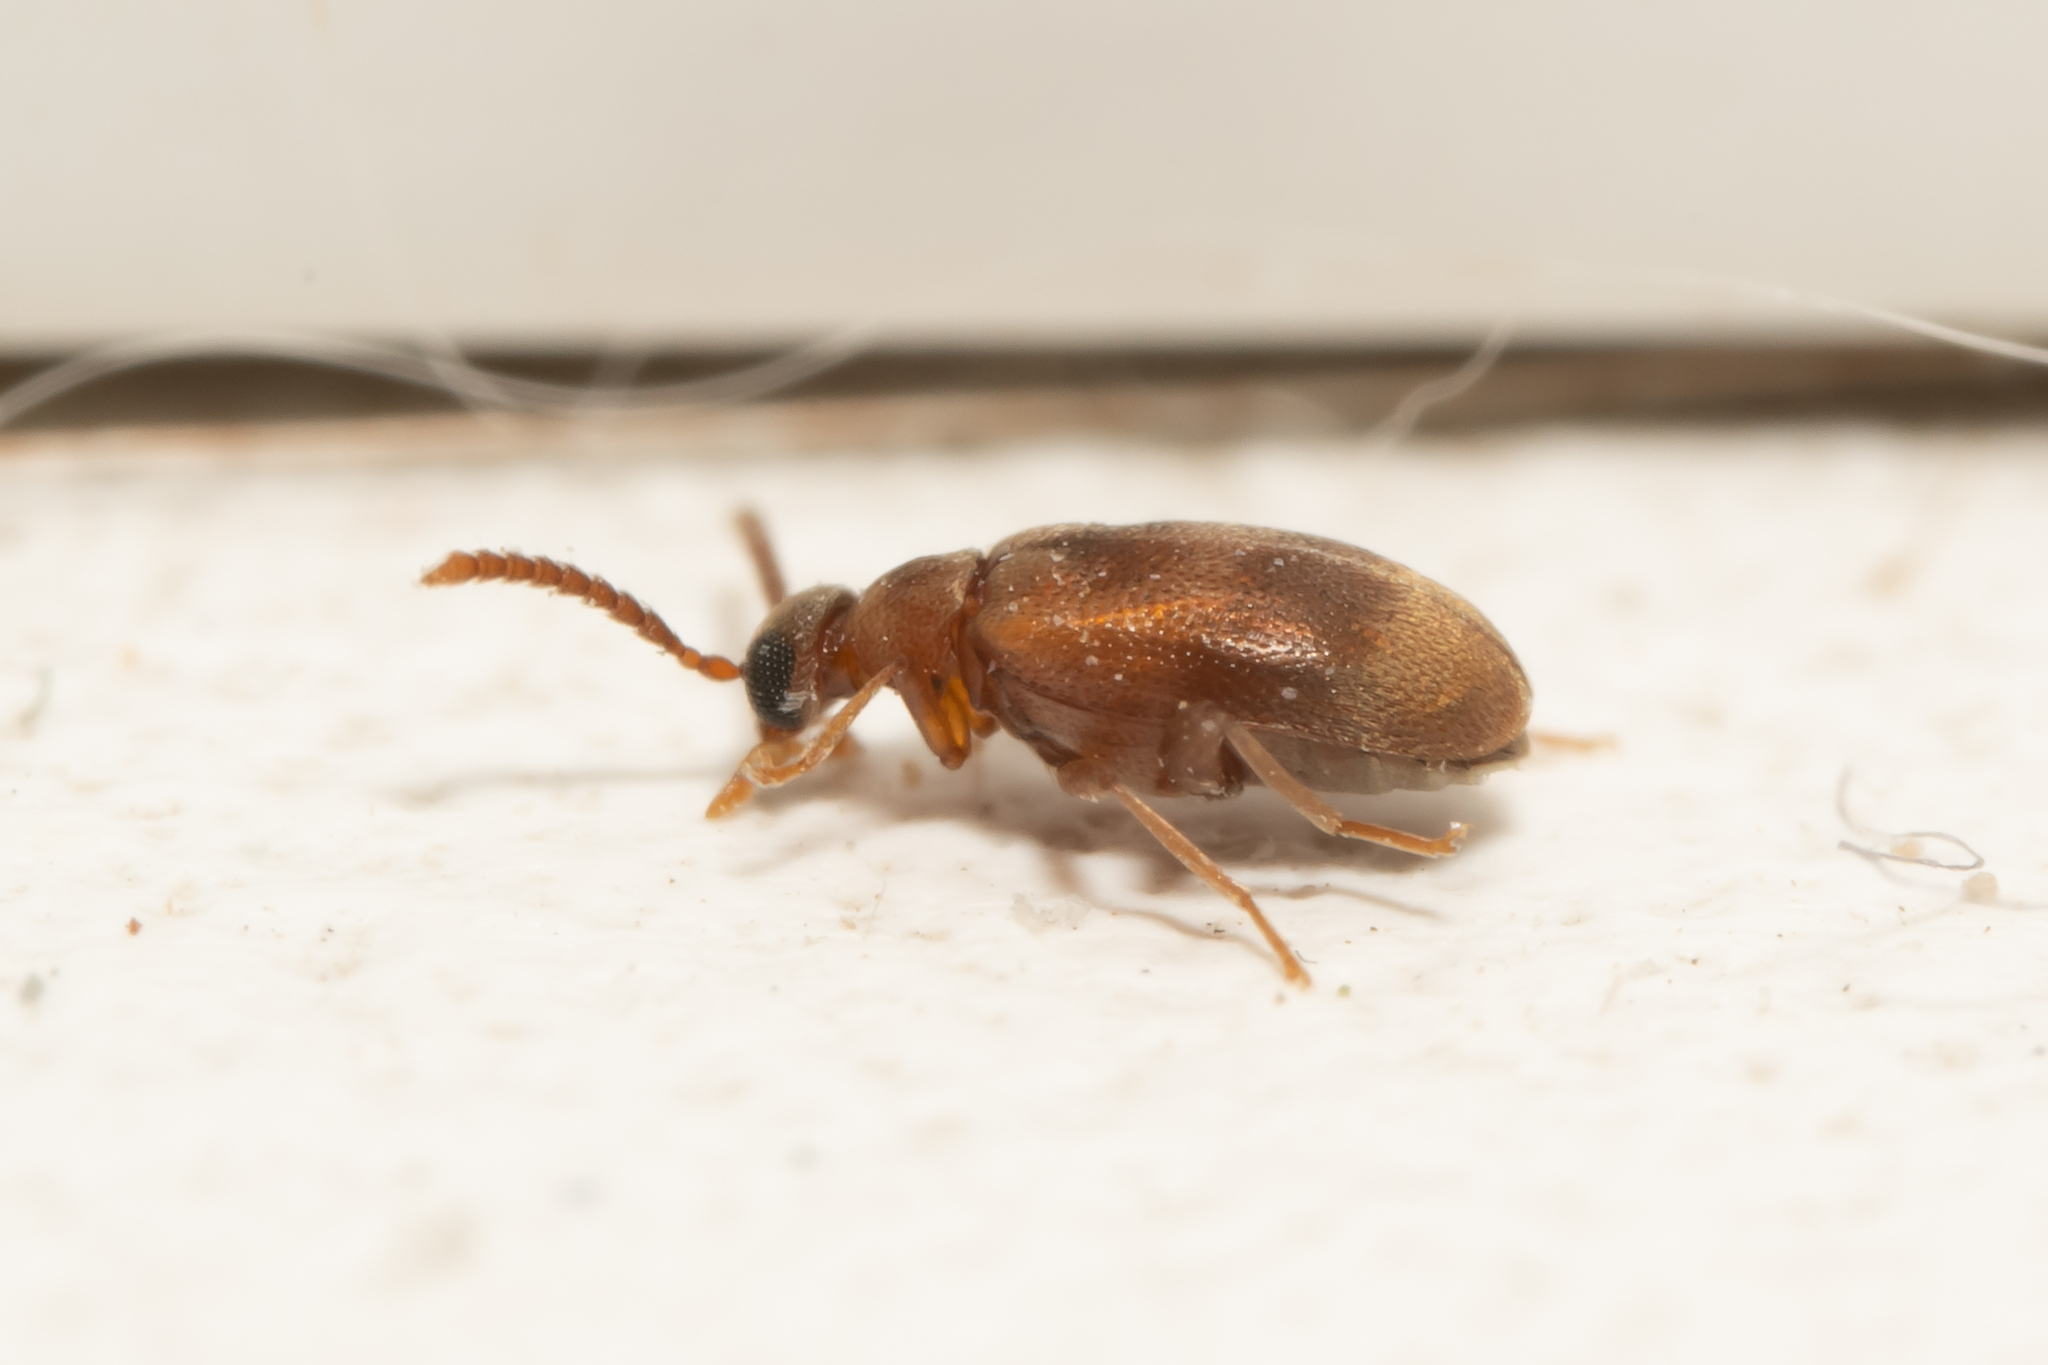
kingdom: Animalia
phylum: Arthropoda
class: Insecta
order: Coleoptera
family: Aderidae
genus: Aderus
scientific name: Aderus populneus
